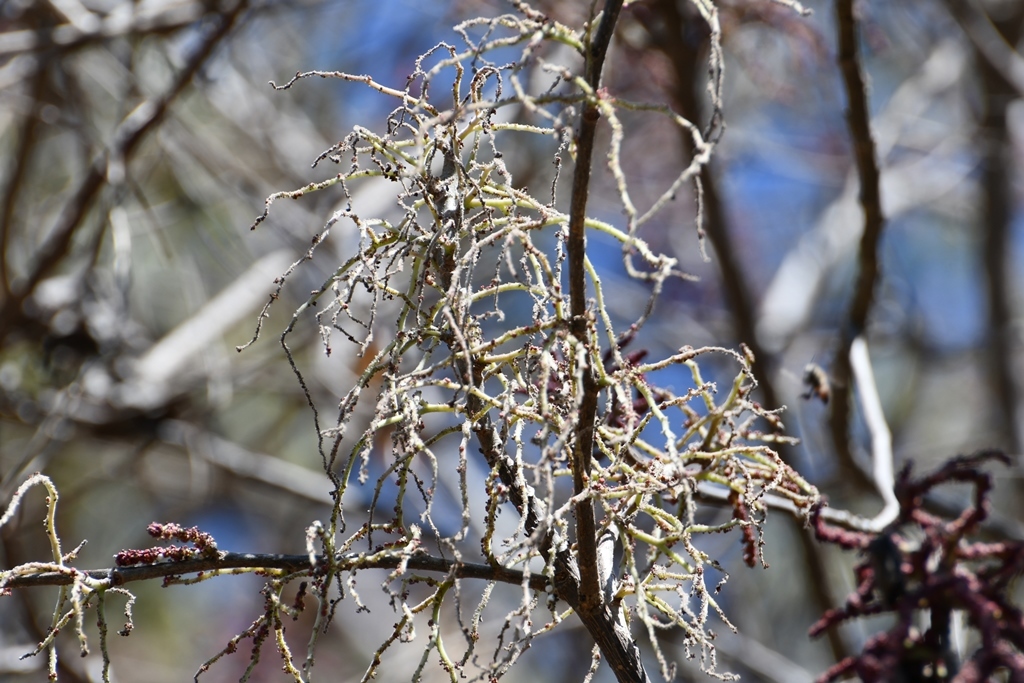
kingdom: Plantae
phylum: Tracheophyta
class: Magnoliopsida
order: Rosales
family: Urticaceae
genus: Myriocarpa
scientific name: Myriocarpa heterospicata
